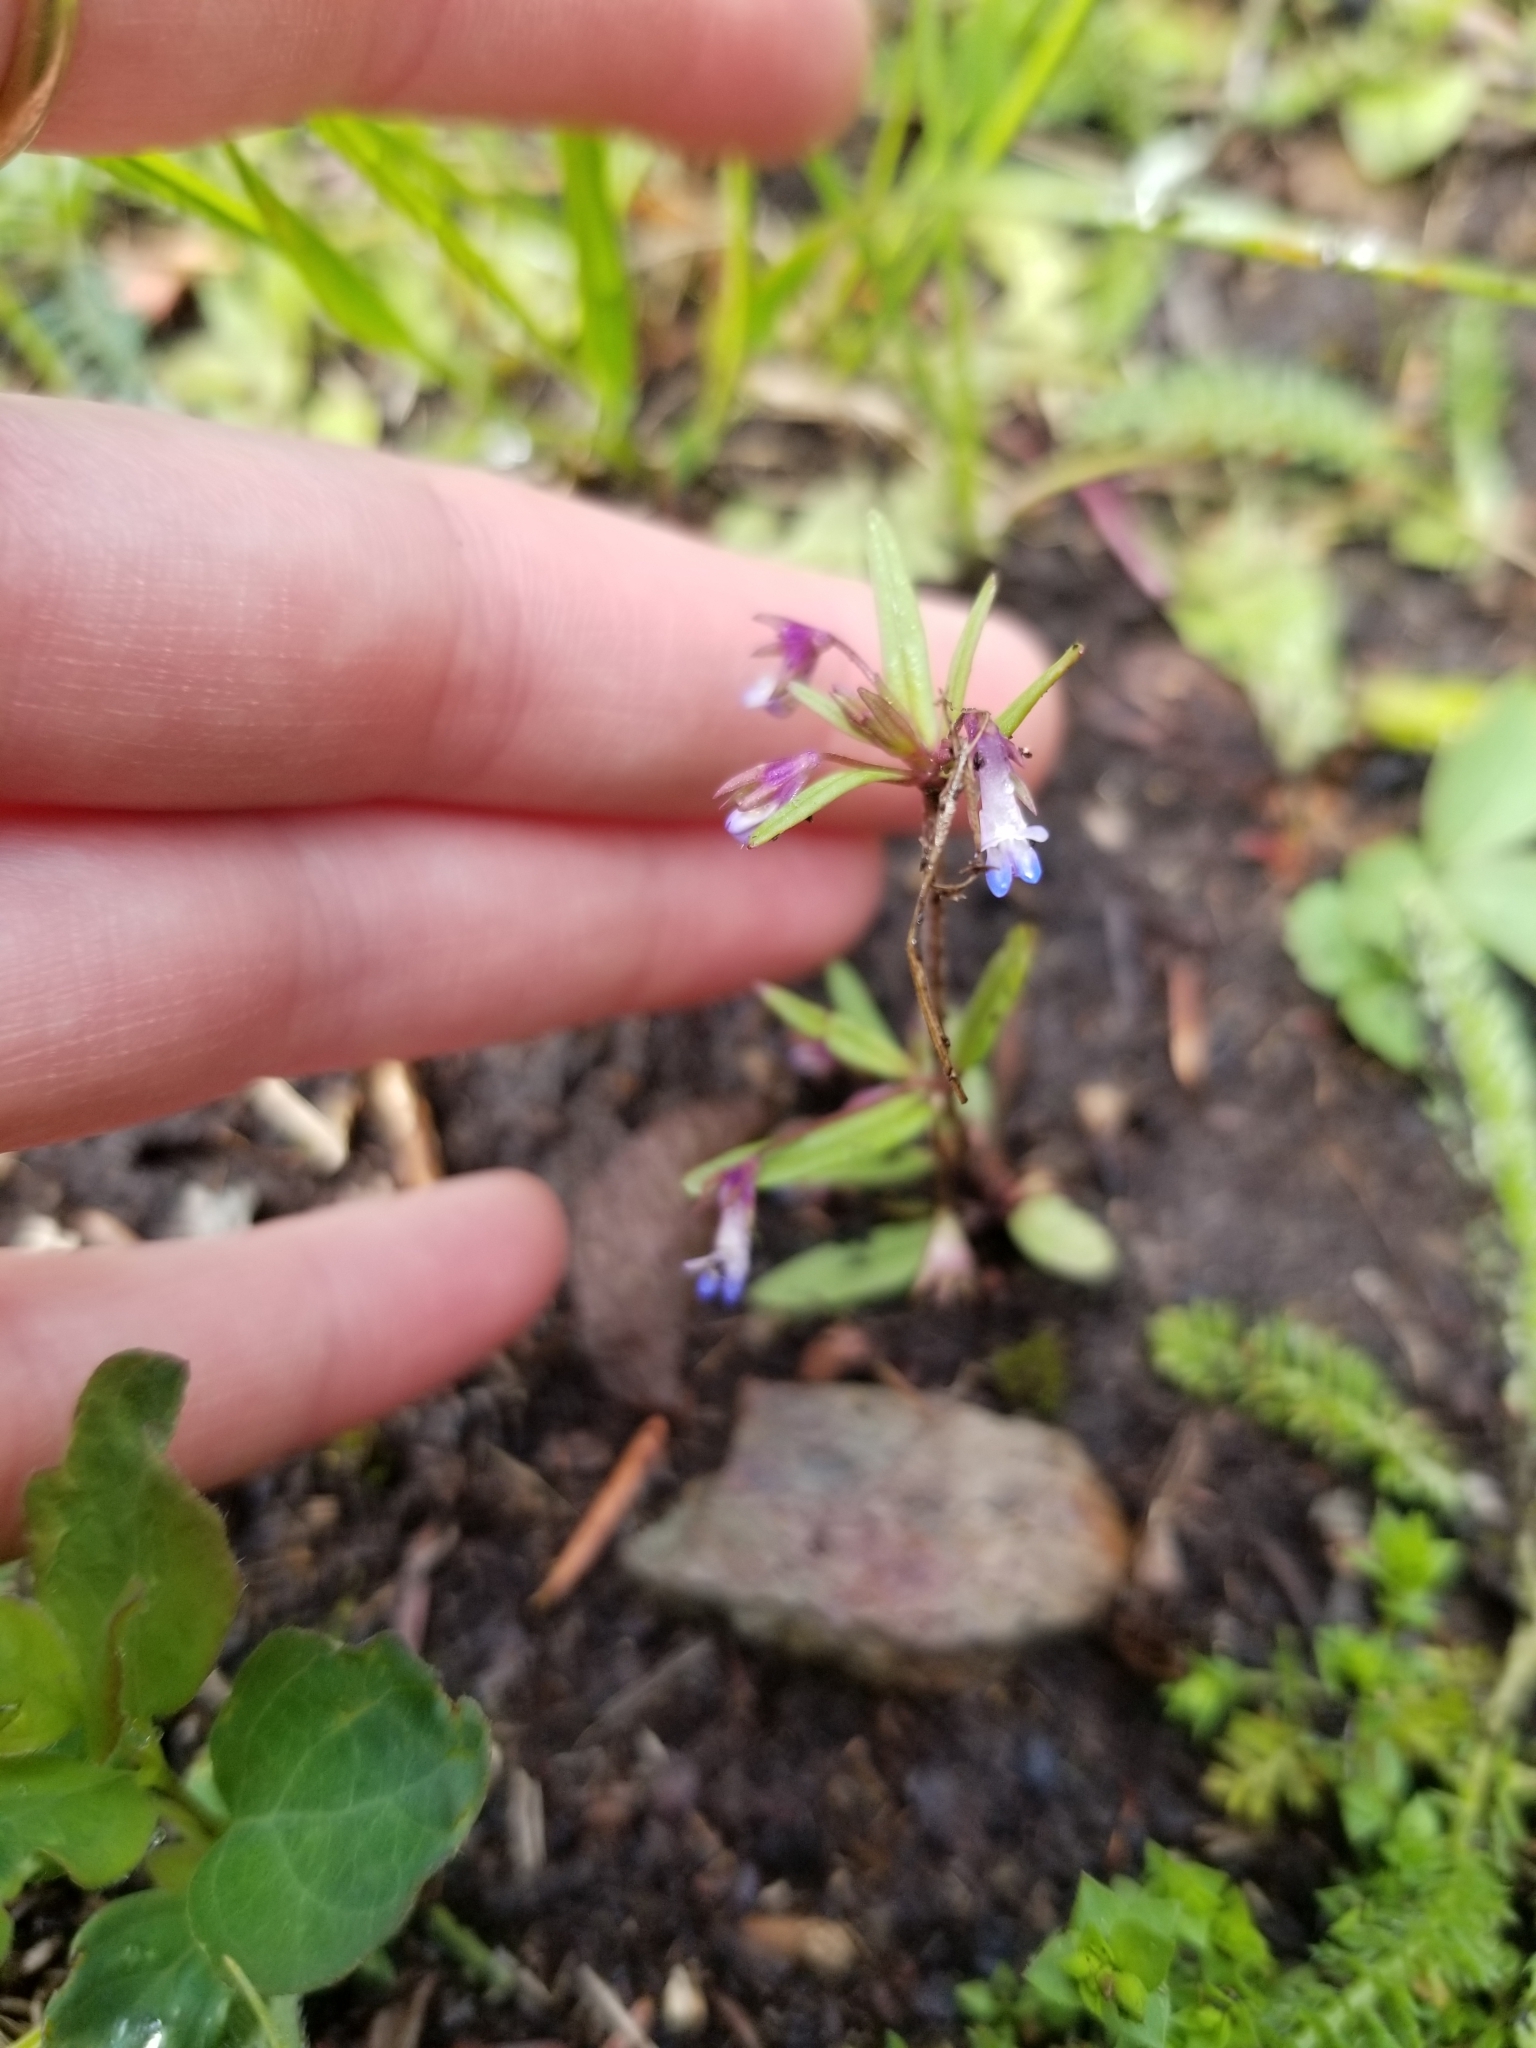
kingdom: Plantae
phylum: Tracheophyta
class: Magnoliopsida
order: Lamiales
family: Plantaginaceae
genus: Collinsia
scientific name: Collinsia parviflora
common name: Blue-lips
